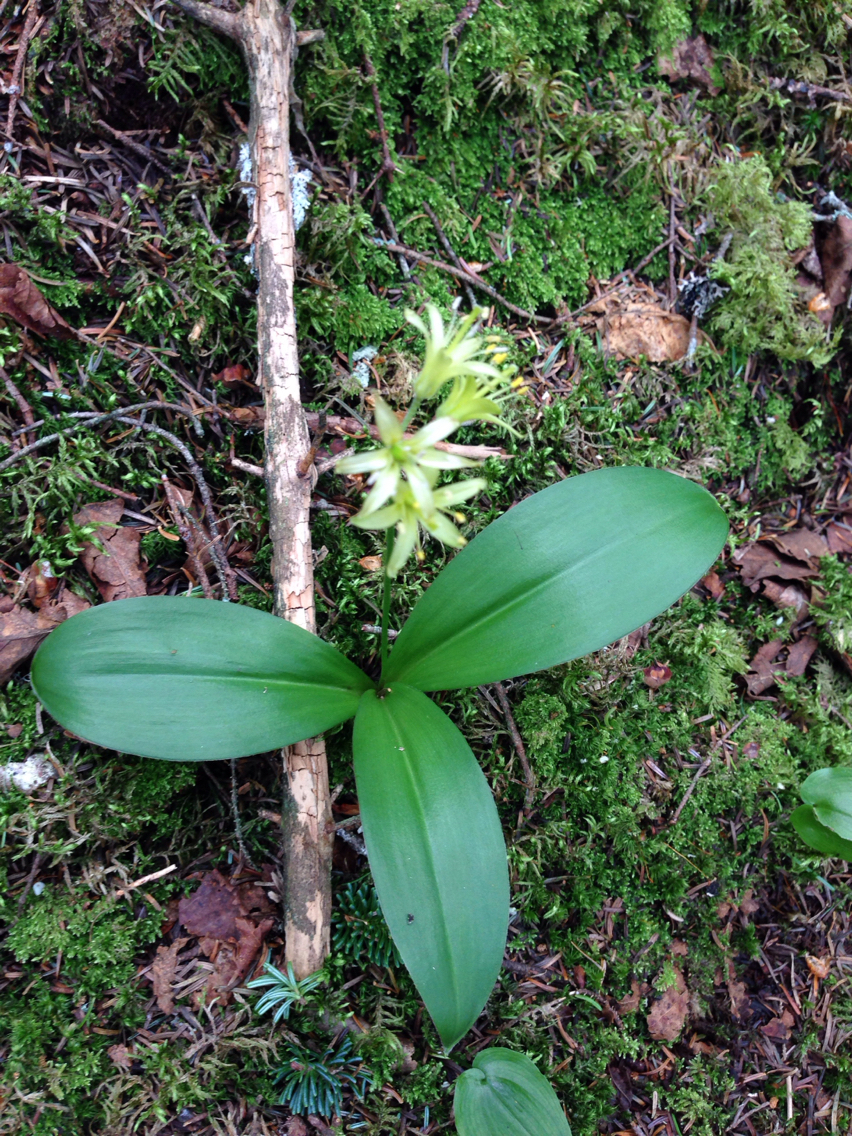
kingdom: Plantae
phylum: Tracheophyta
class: Liliopsida
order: Liliales
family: Liliaceae
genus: Clintonia
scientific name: Clintonia borealis
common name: Yellow clintonia
